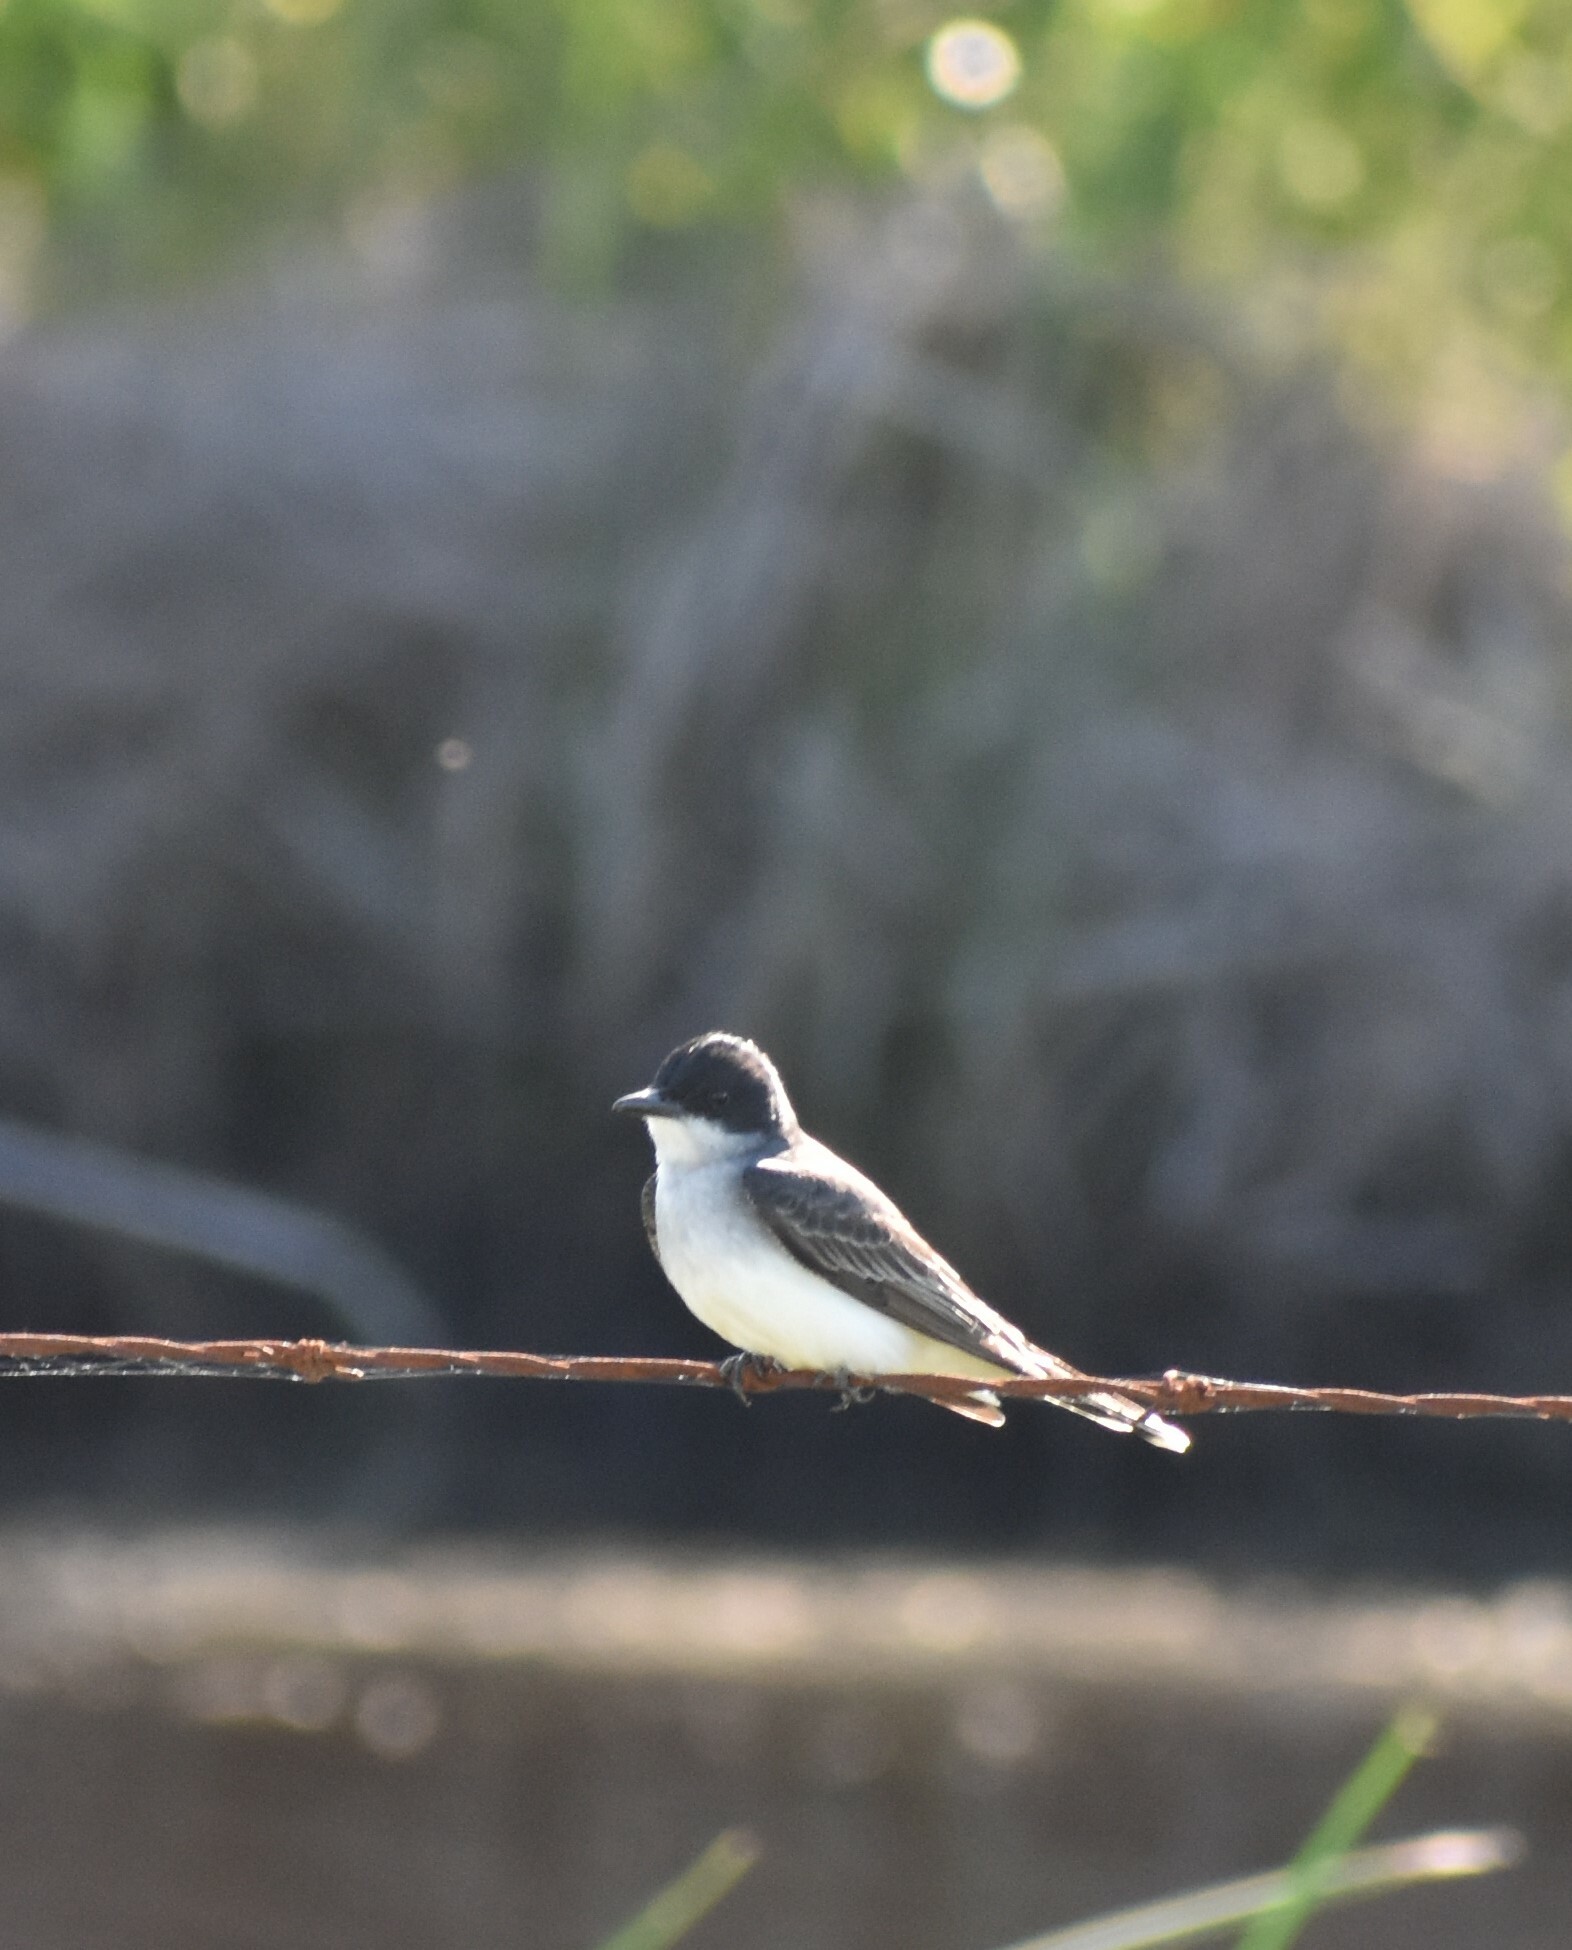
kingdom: Animalia
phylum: Chordata
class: Aves
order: Passeriformes
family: Tyrannidae
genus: Tyrannus
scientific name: Tyrannus tyrannus
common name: Eastern kingbird
